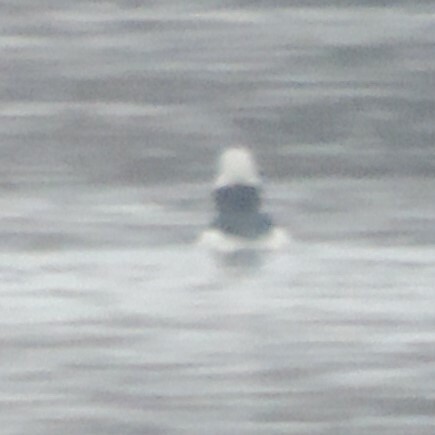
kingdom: Animalia
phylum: Chordata
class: Aves
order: Anseriformes
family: Anatidae
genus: Bucephala
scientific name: Bucephala albeola
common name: Bufflehead
